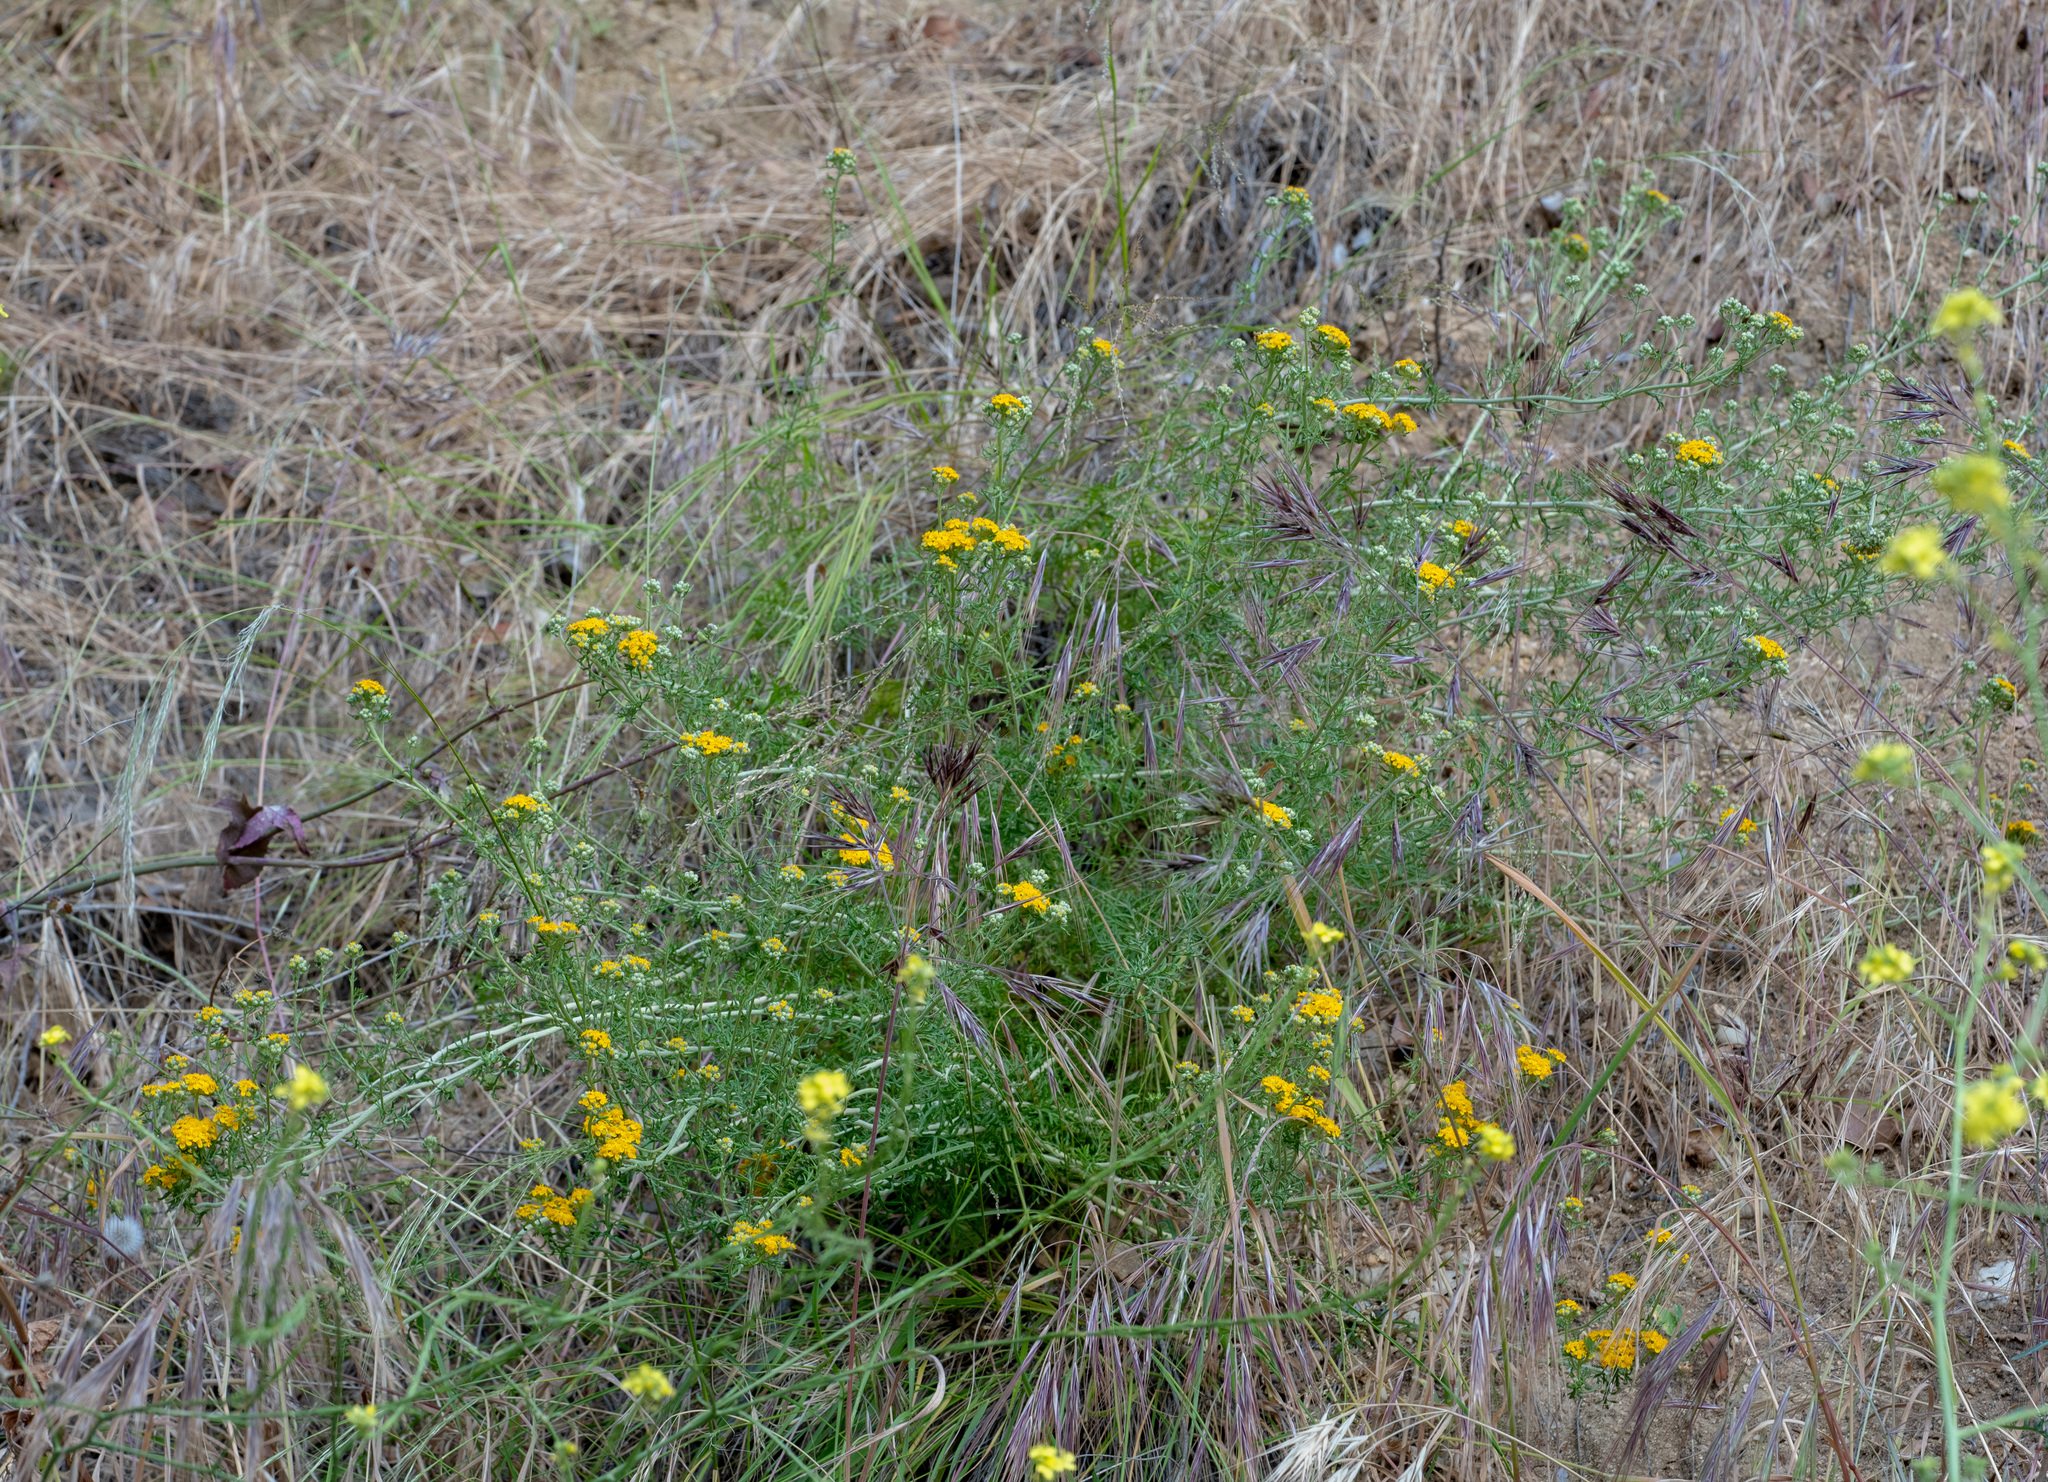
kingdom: Plantae
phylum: Tracheophyta
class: Magnoliopsida
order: Asterales
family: Asteraceae
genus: Eriophyllum
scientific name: Eriophyllum confertiflorum
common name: Golden-yarrow
